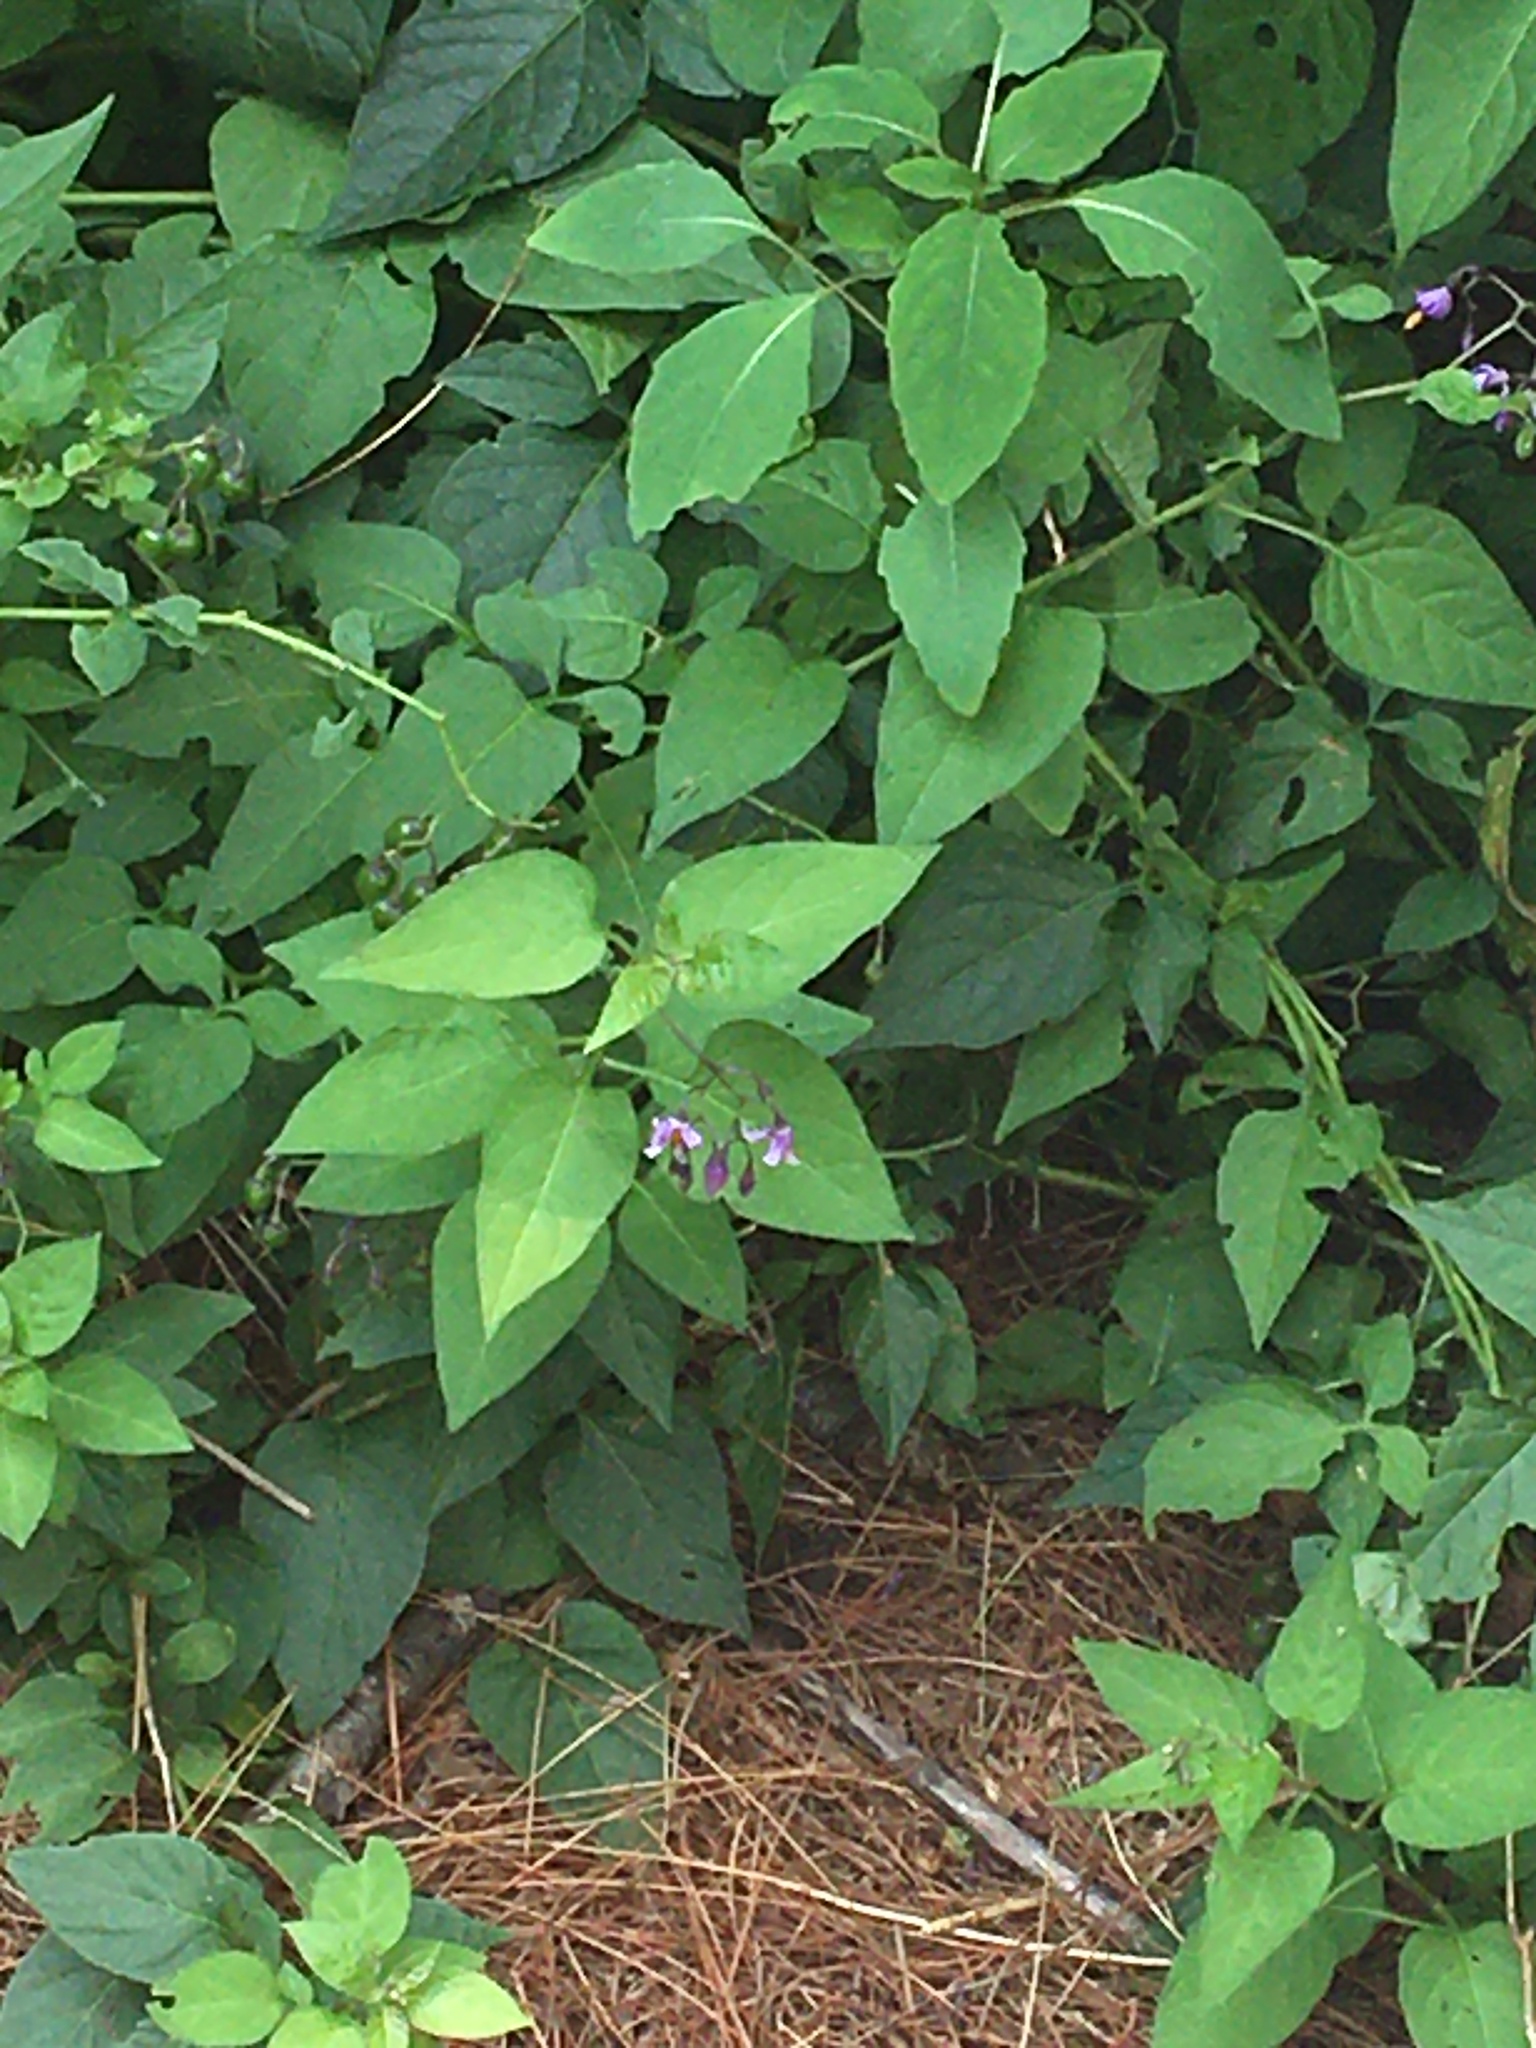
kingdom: Plantae
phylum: Tracheophyta
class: Magnoliopsida
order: Solanales
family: Solanaceae
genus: Solanum
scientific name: Solanum dulcamara
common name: Climbing nightshade
